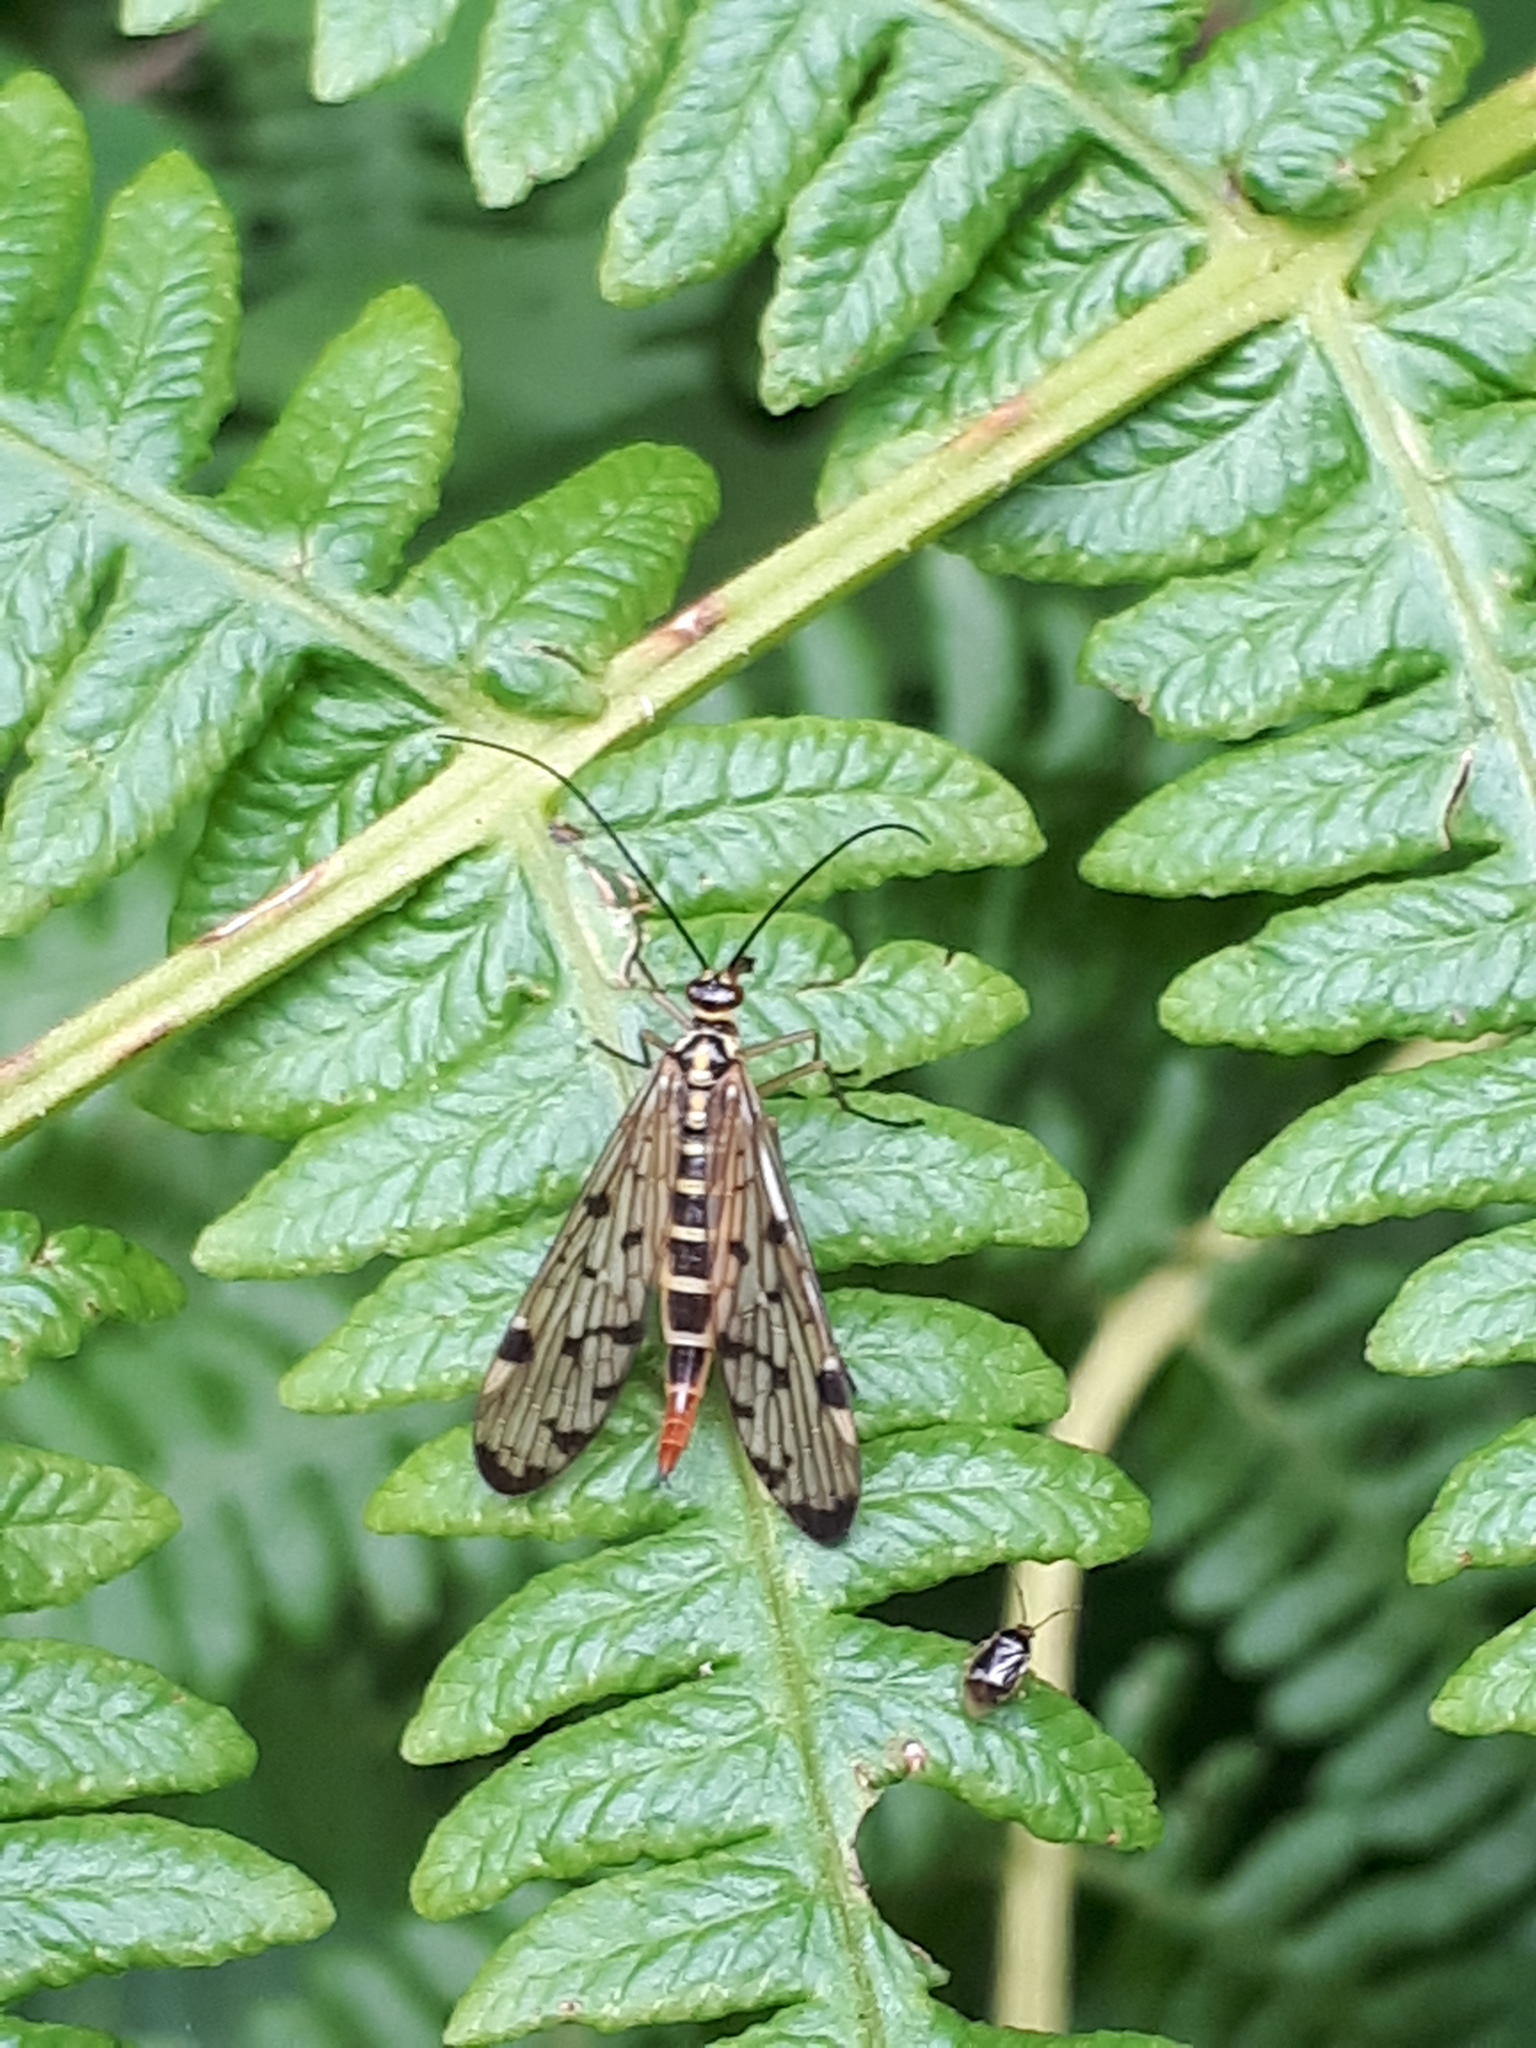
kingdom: Animalia
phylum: Arthropoda
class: Insecta
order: Mecoptera
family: Panorpidae
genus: Panorpa
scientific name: Panorpa germanica
